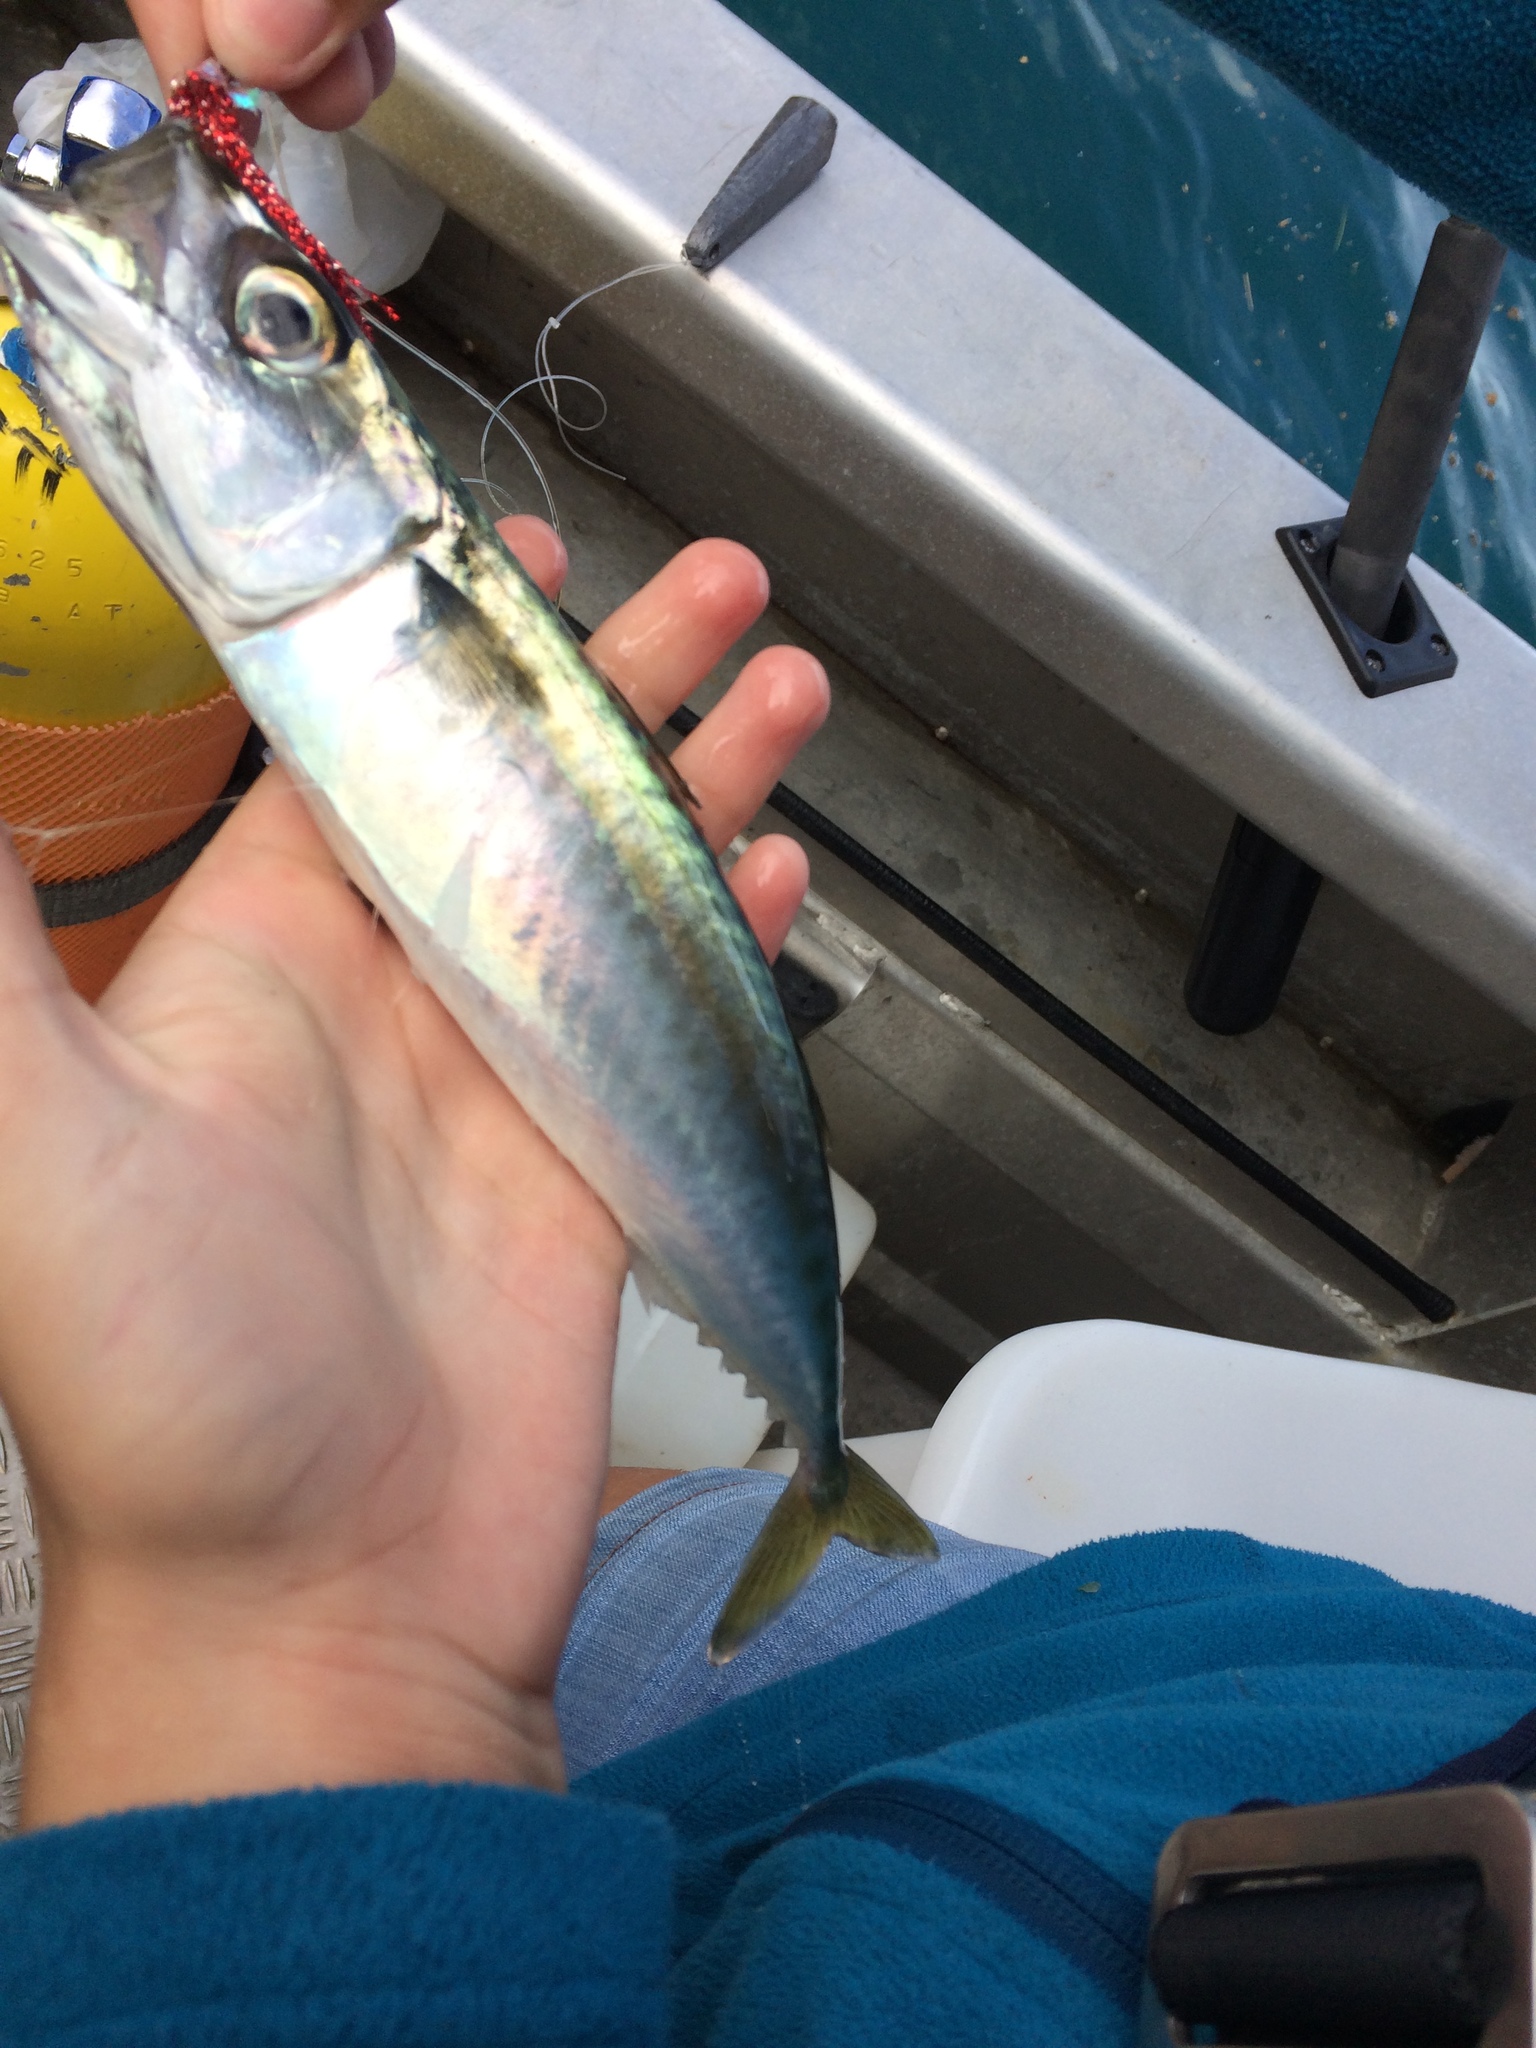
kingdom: Animalia
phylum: Chordata
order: Perciformes
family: Scombridae
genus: Scomber
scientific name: Scomber australasicus
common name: Blue mackerel
